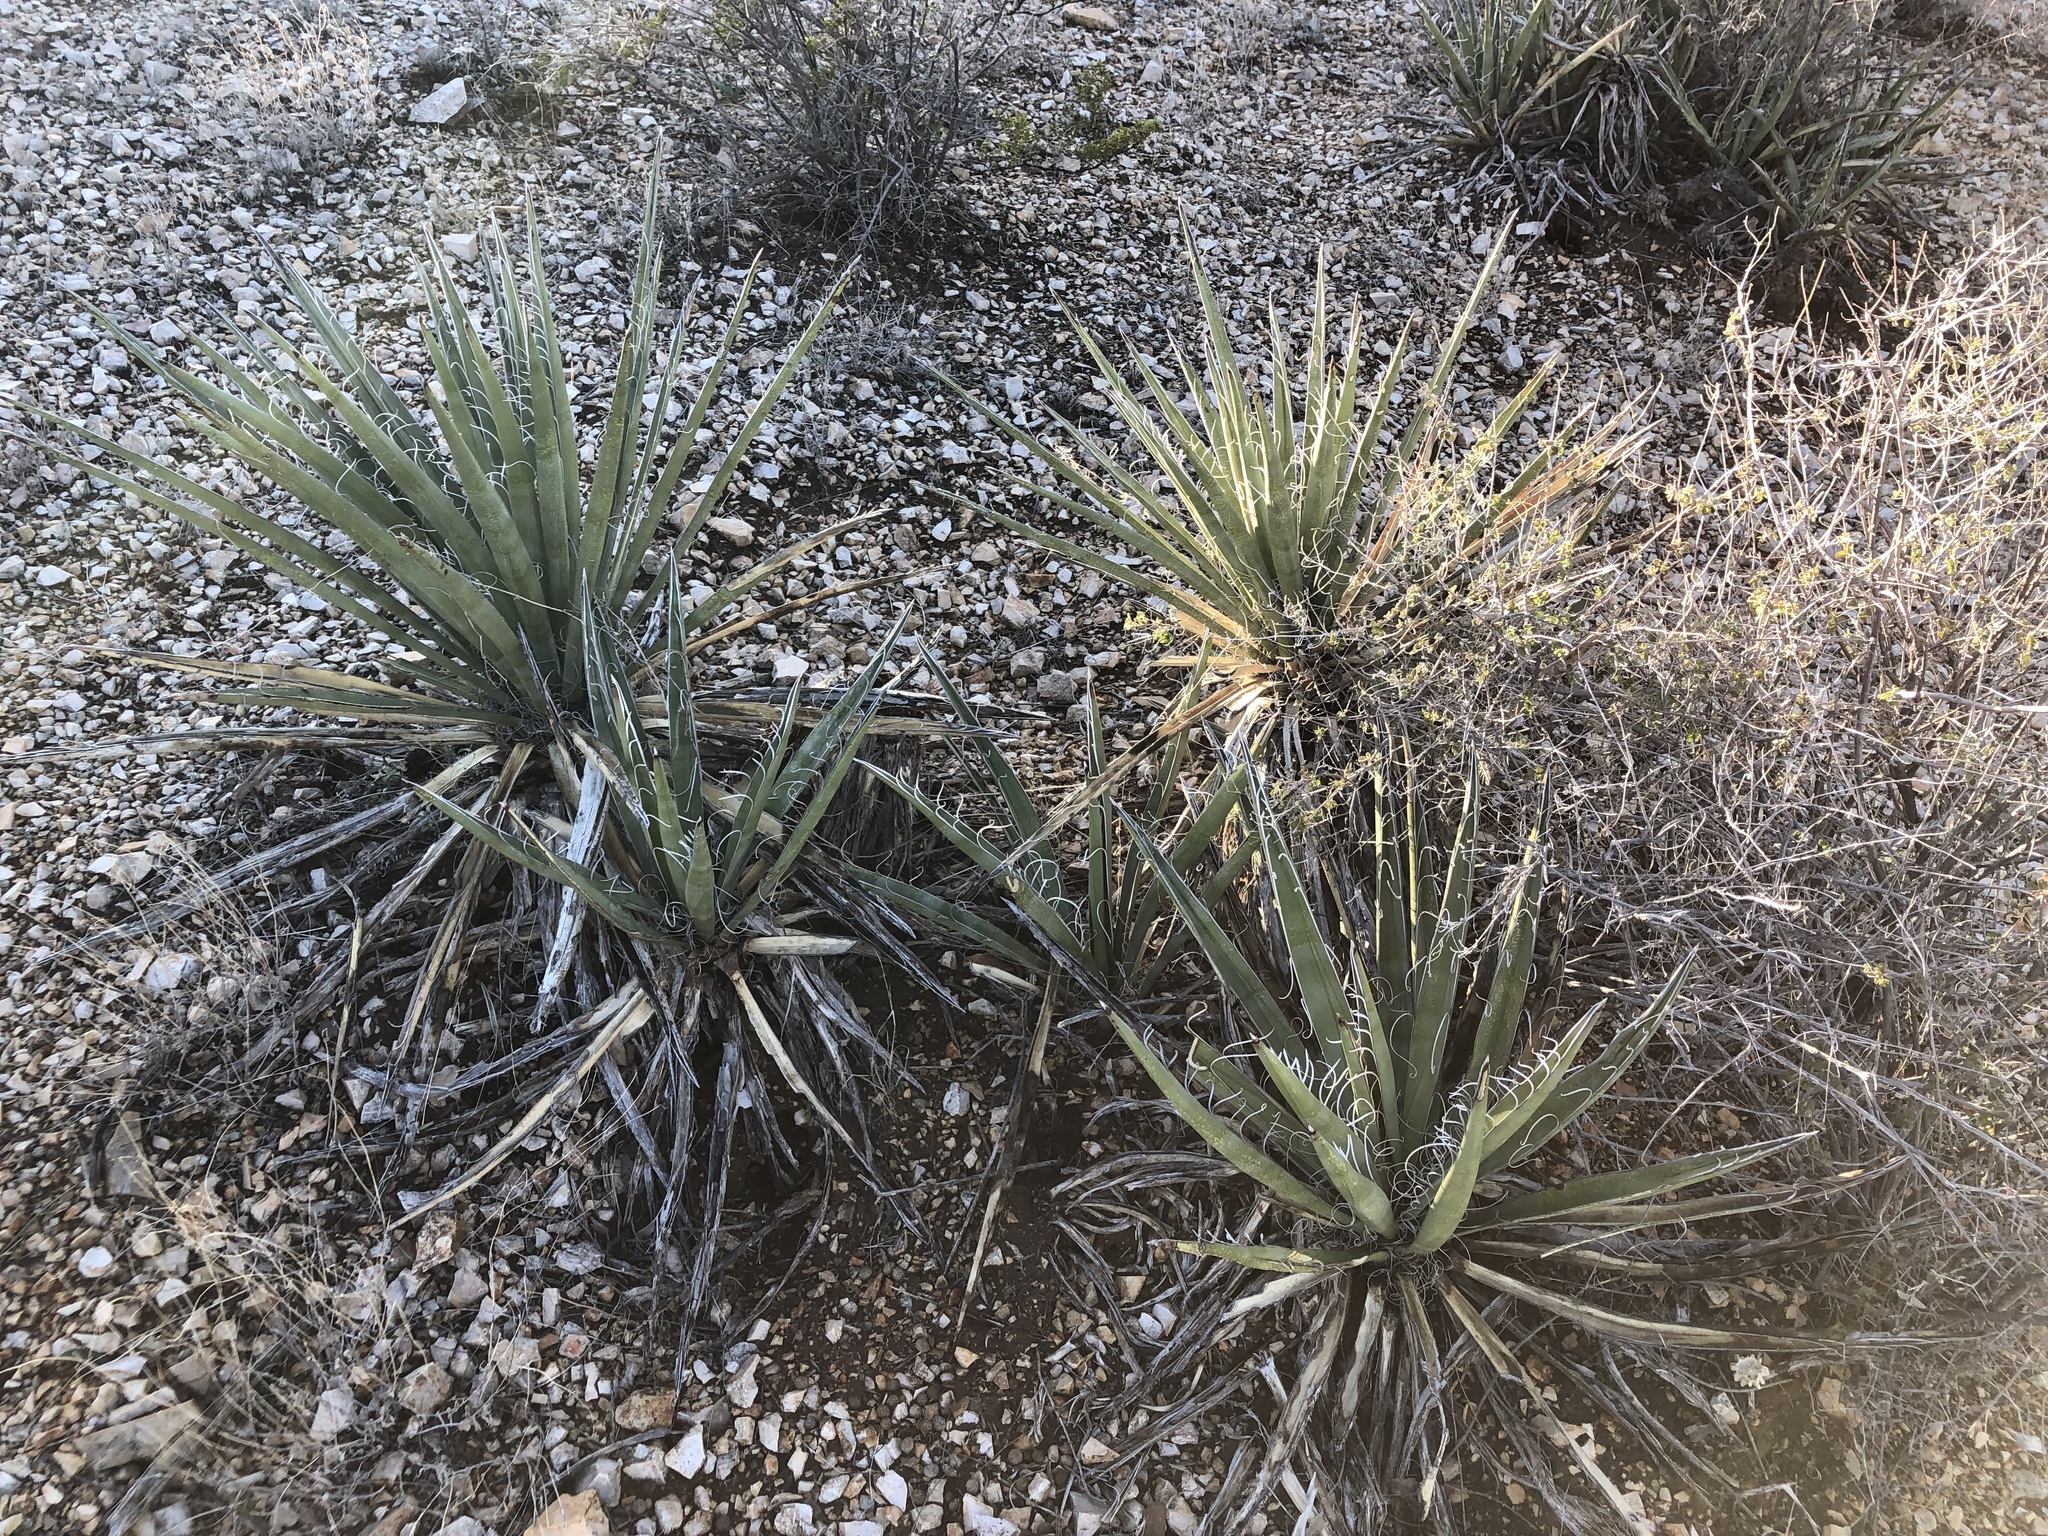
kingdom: Plantae
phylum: Tracheophyta
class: Liliopsida
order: Asparagales
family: Asparagaceae
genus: Yucca
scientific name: Yucca baccata
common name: Banana yucca
